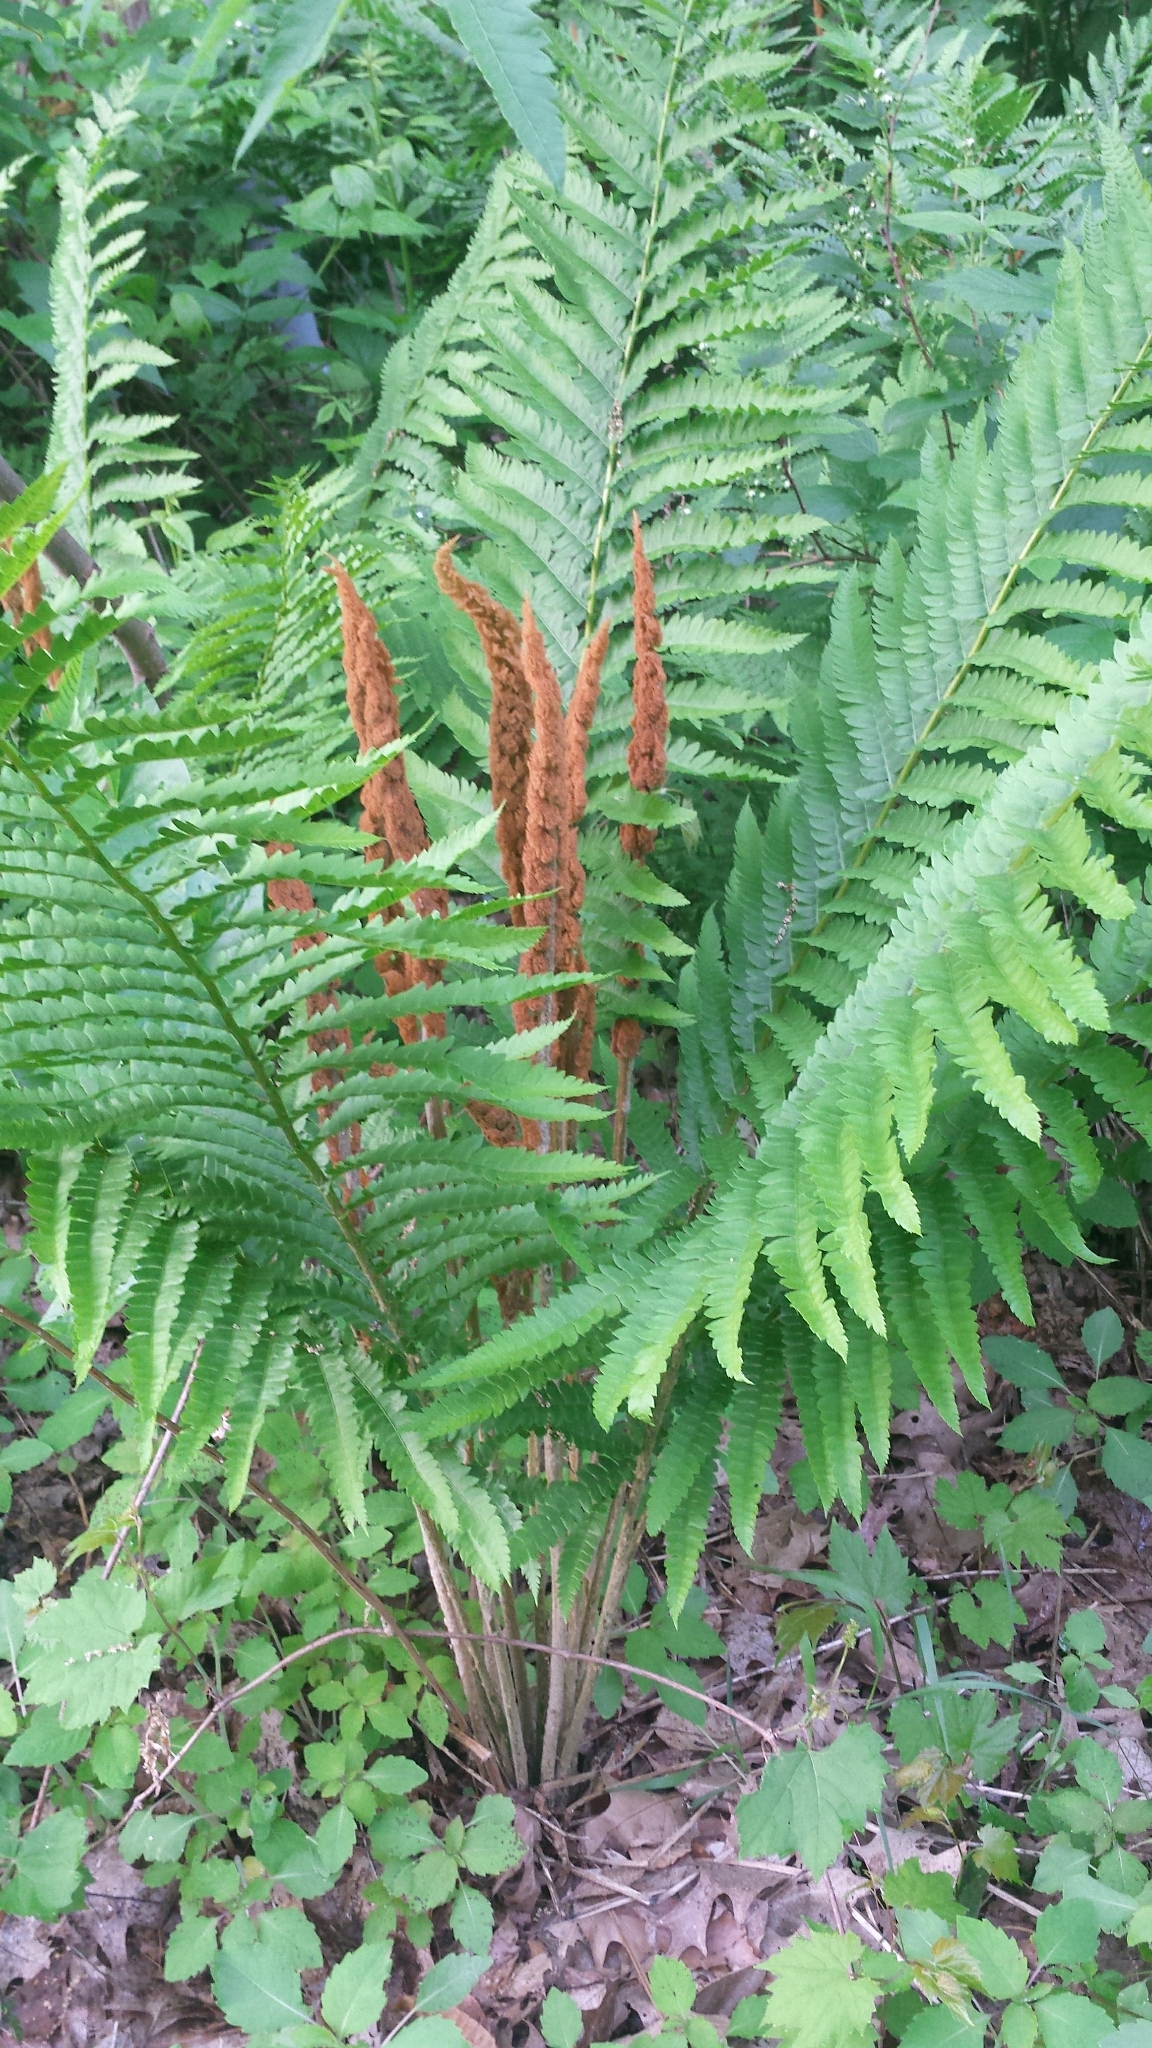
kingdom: Plantae
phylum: Tracheophyta
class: Polypodiopsida
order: Osmundales
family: Osmundaceae
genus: Osmundastrum
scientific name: Osmundastrum cinnamomeum
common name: Cinnamon fern
